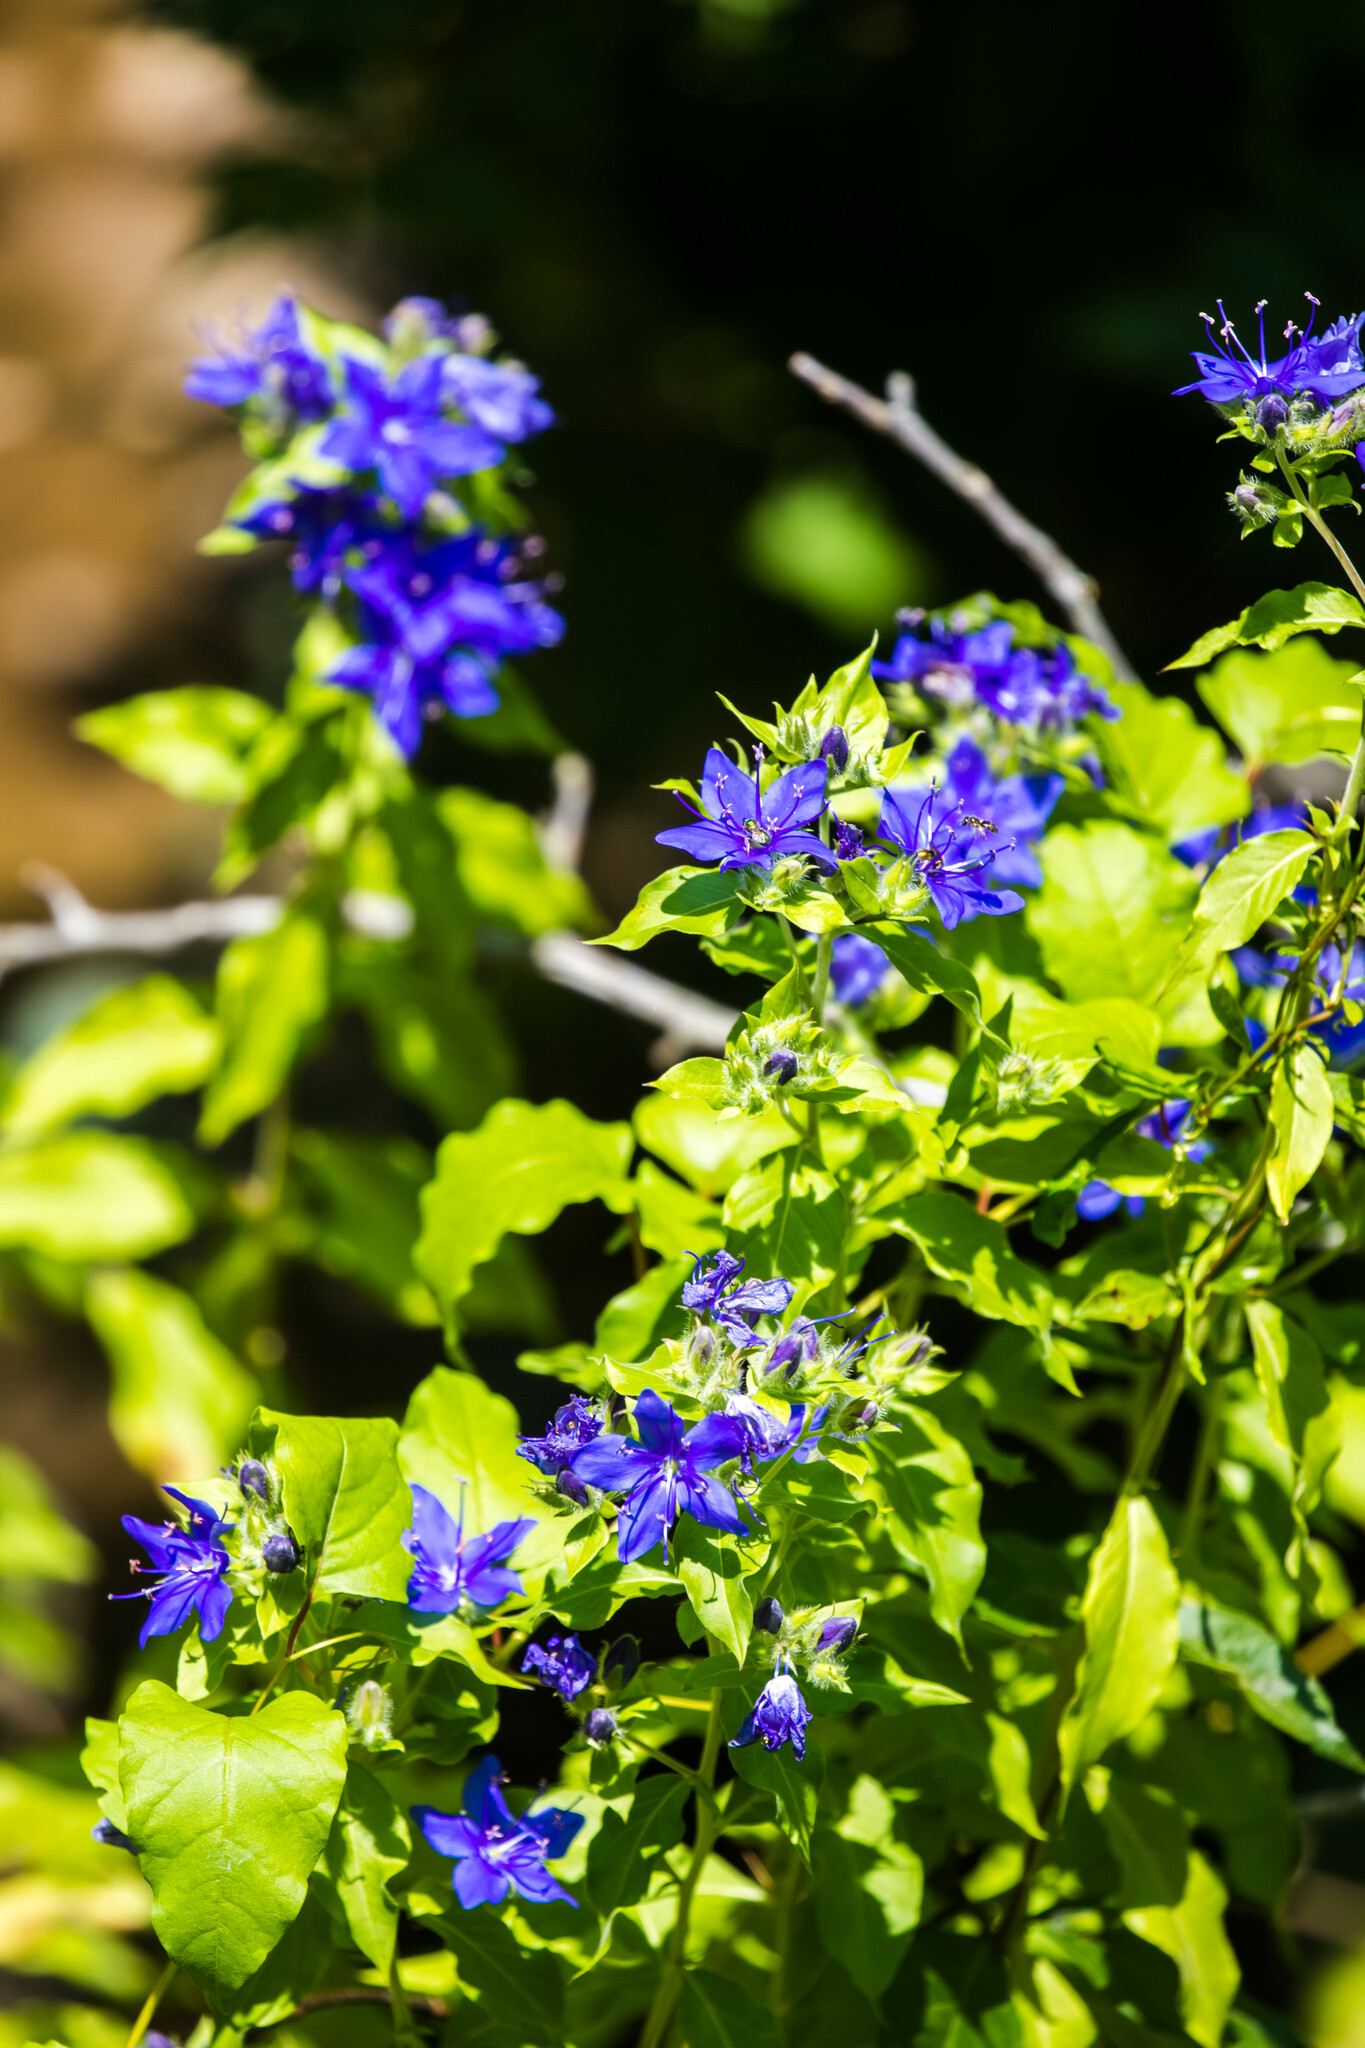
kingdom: Plantae
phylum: Tracheophyta
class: Magnoliopsida
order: Solanales
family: Hydroleaceae
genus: Hydrolea
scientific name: Hydrolea ovata
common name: Ovate false fiddleleaf
